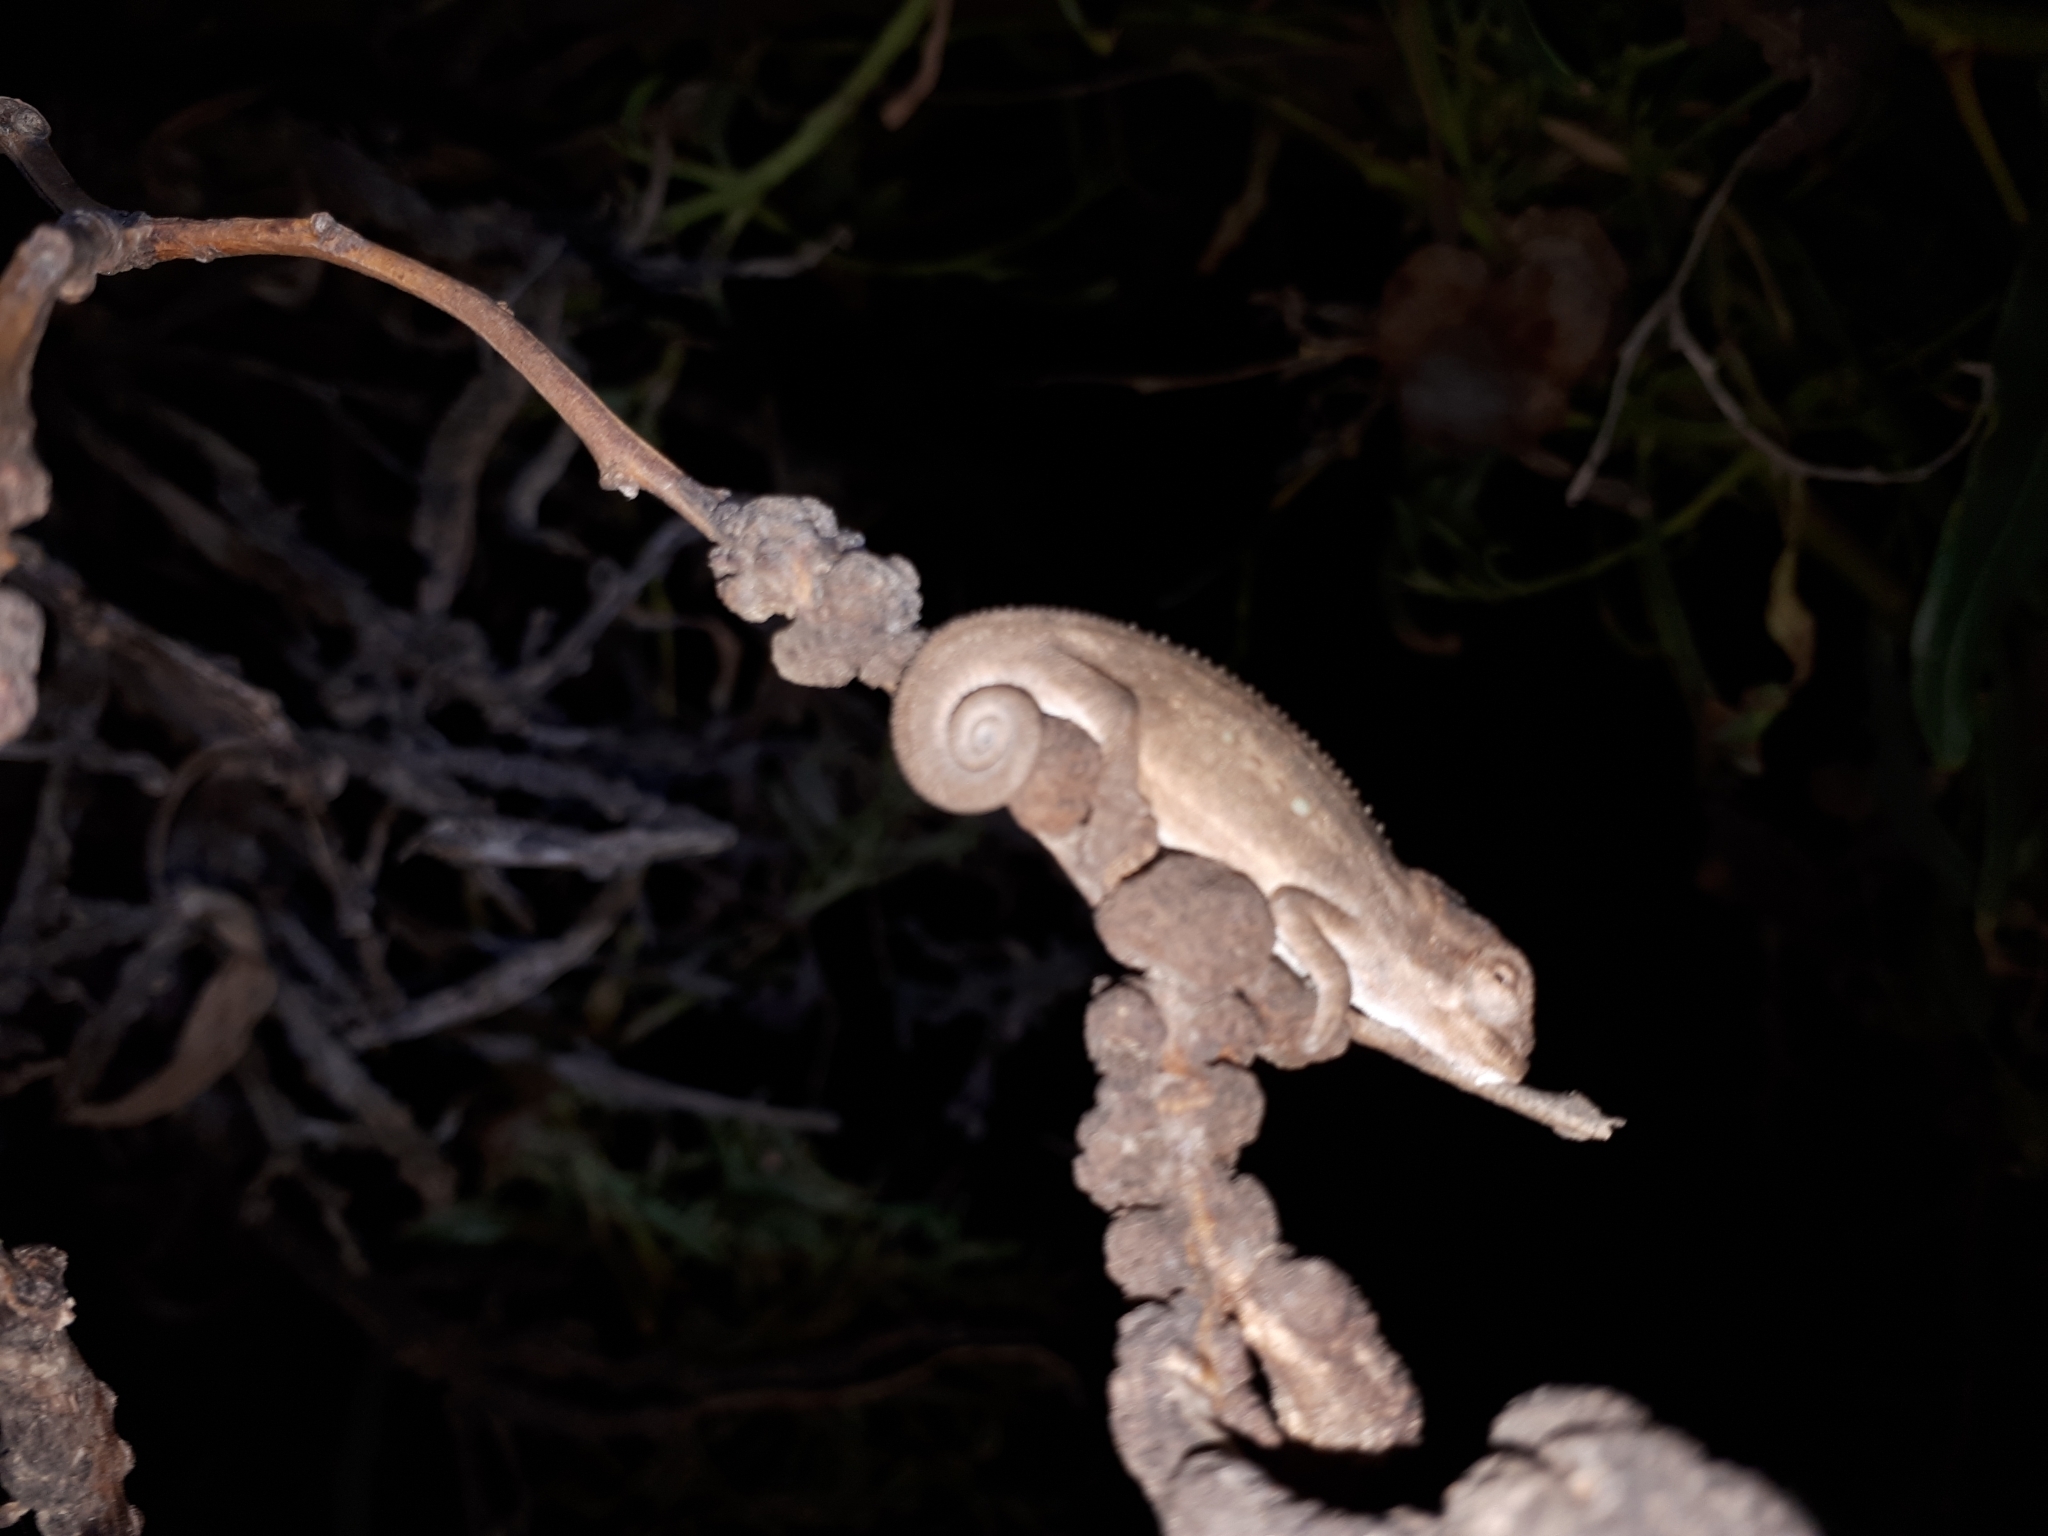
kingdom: Animalia
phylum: Chordata
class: Squamata
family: Chamaeleonidae
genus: Bradypodion
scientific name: Bradypodion pumilum
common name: Cape dwarf chameleon
